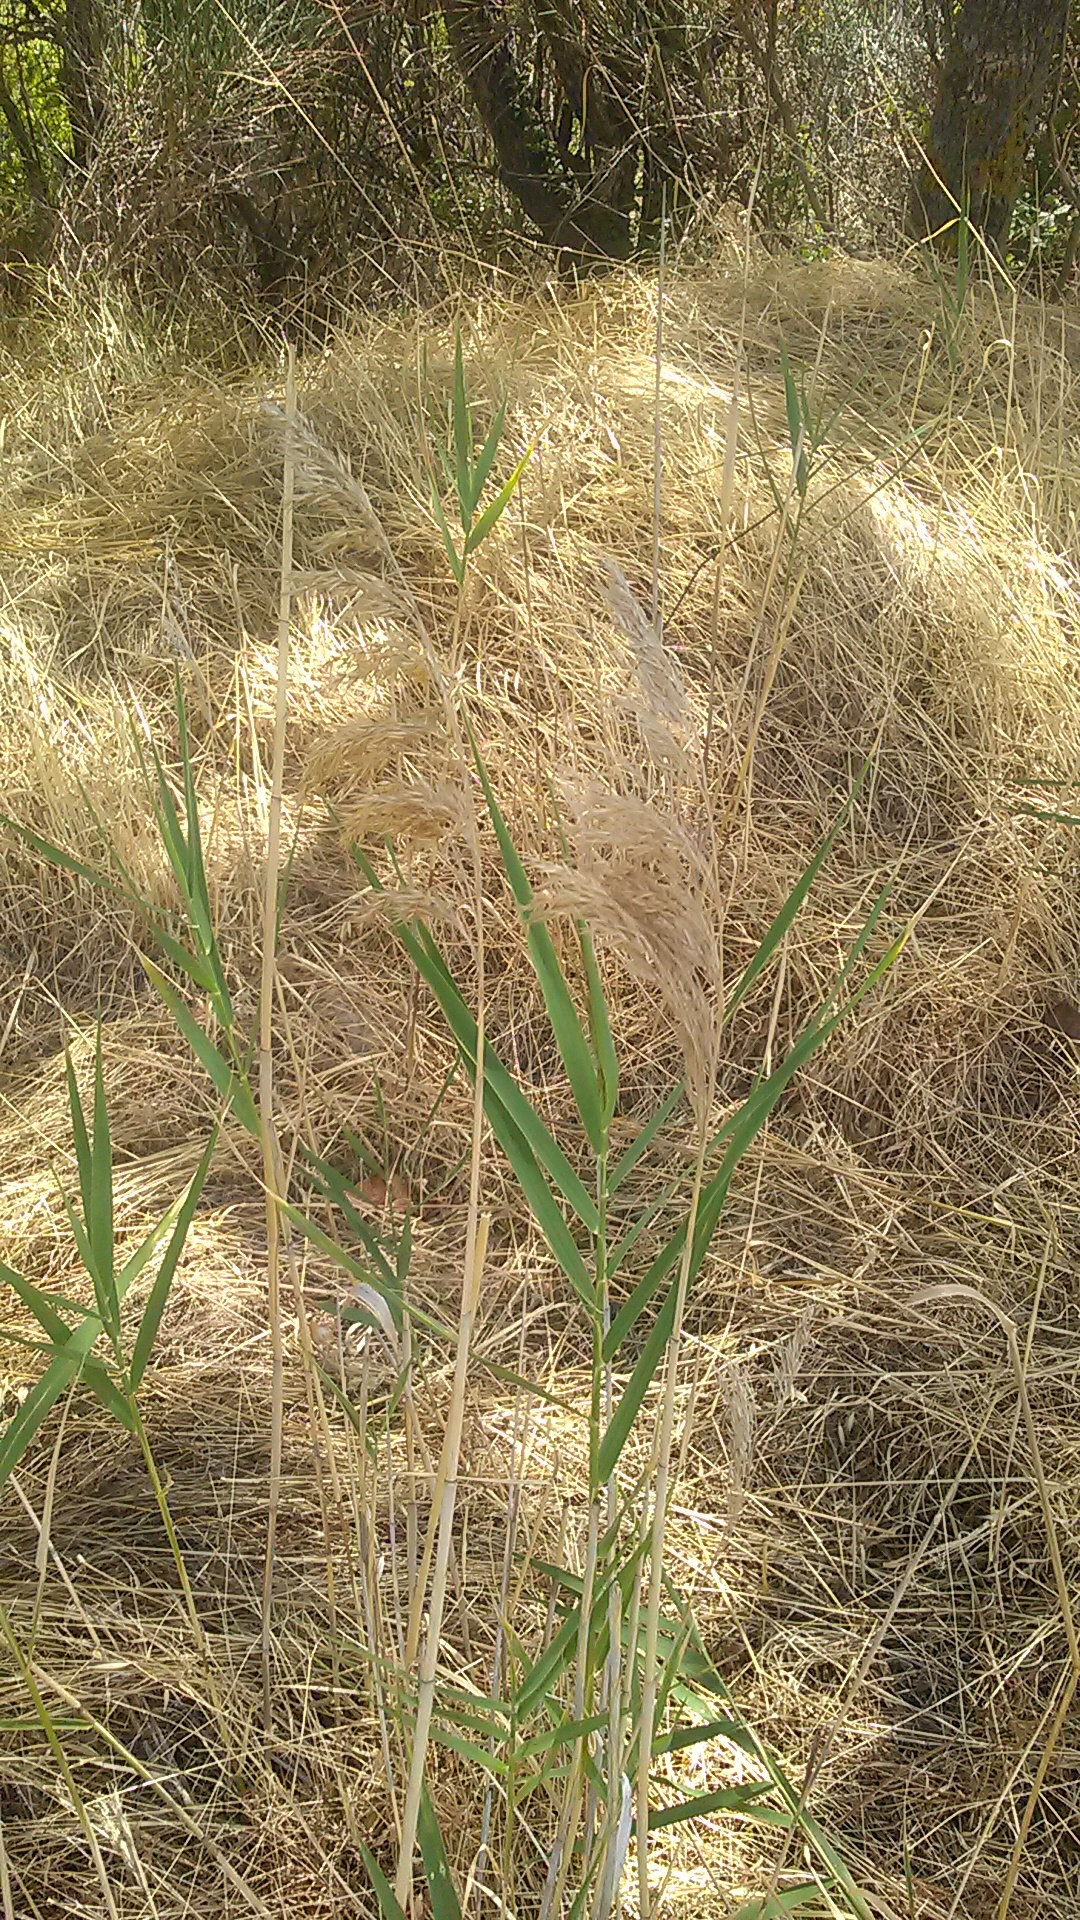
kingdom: Plantae
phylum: Tracheophyta
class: Liliopsida
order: Poales
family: Poaceae
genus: Phragmites
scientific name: Phragmites australis
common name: Common reed
